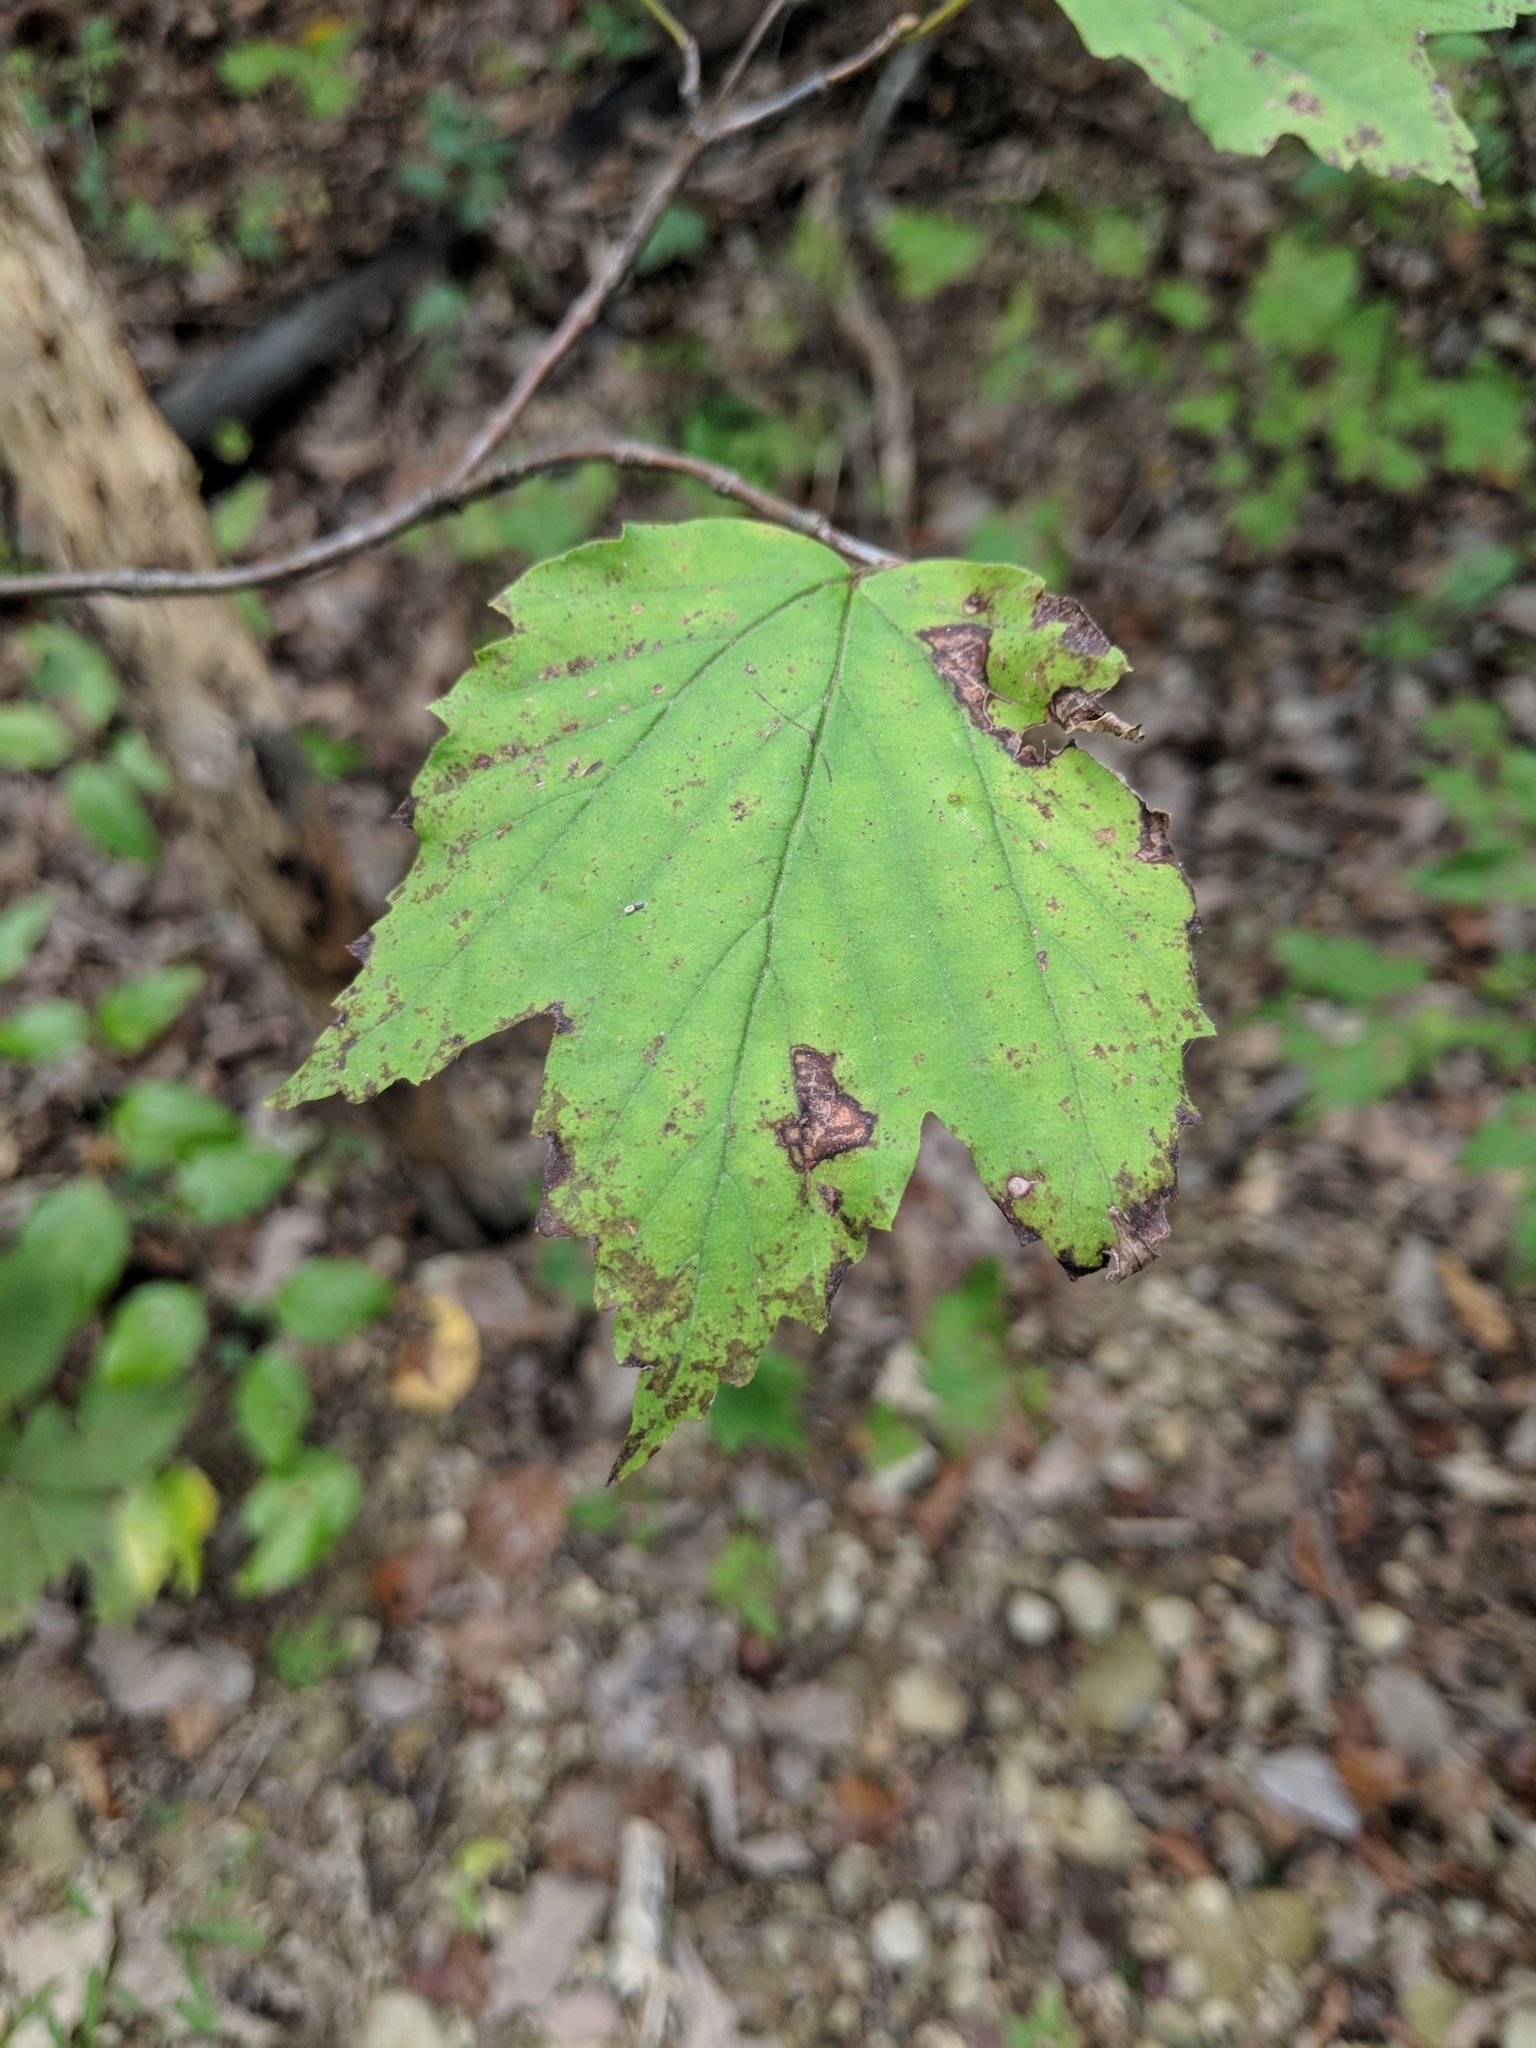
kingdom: Plantae
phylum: Tracheophyta
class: Magnoliopsida
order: Dipsacales
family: Viburnaceae
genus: Viburnum
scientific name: Viburnum acerifolium
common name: Dockmackie
